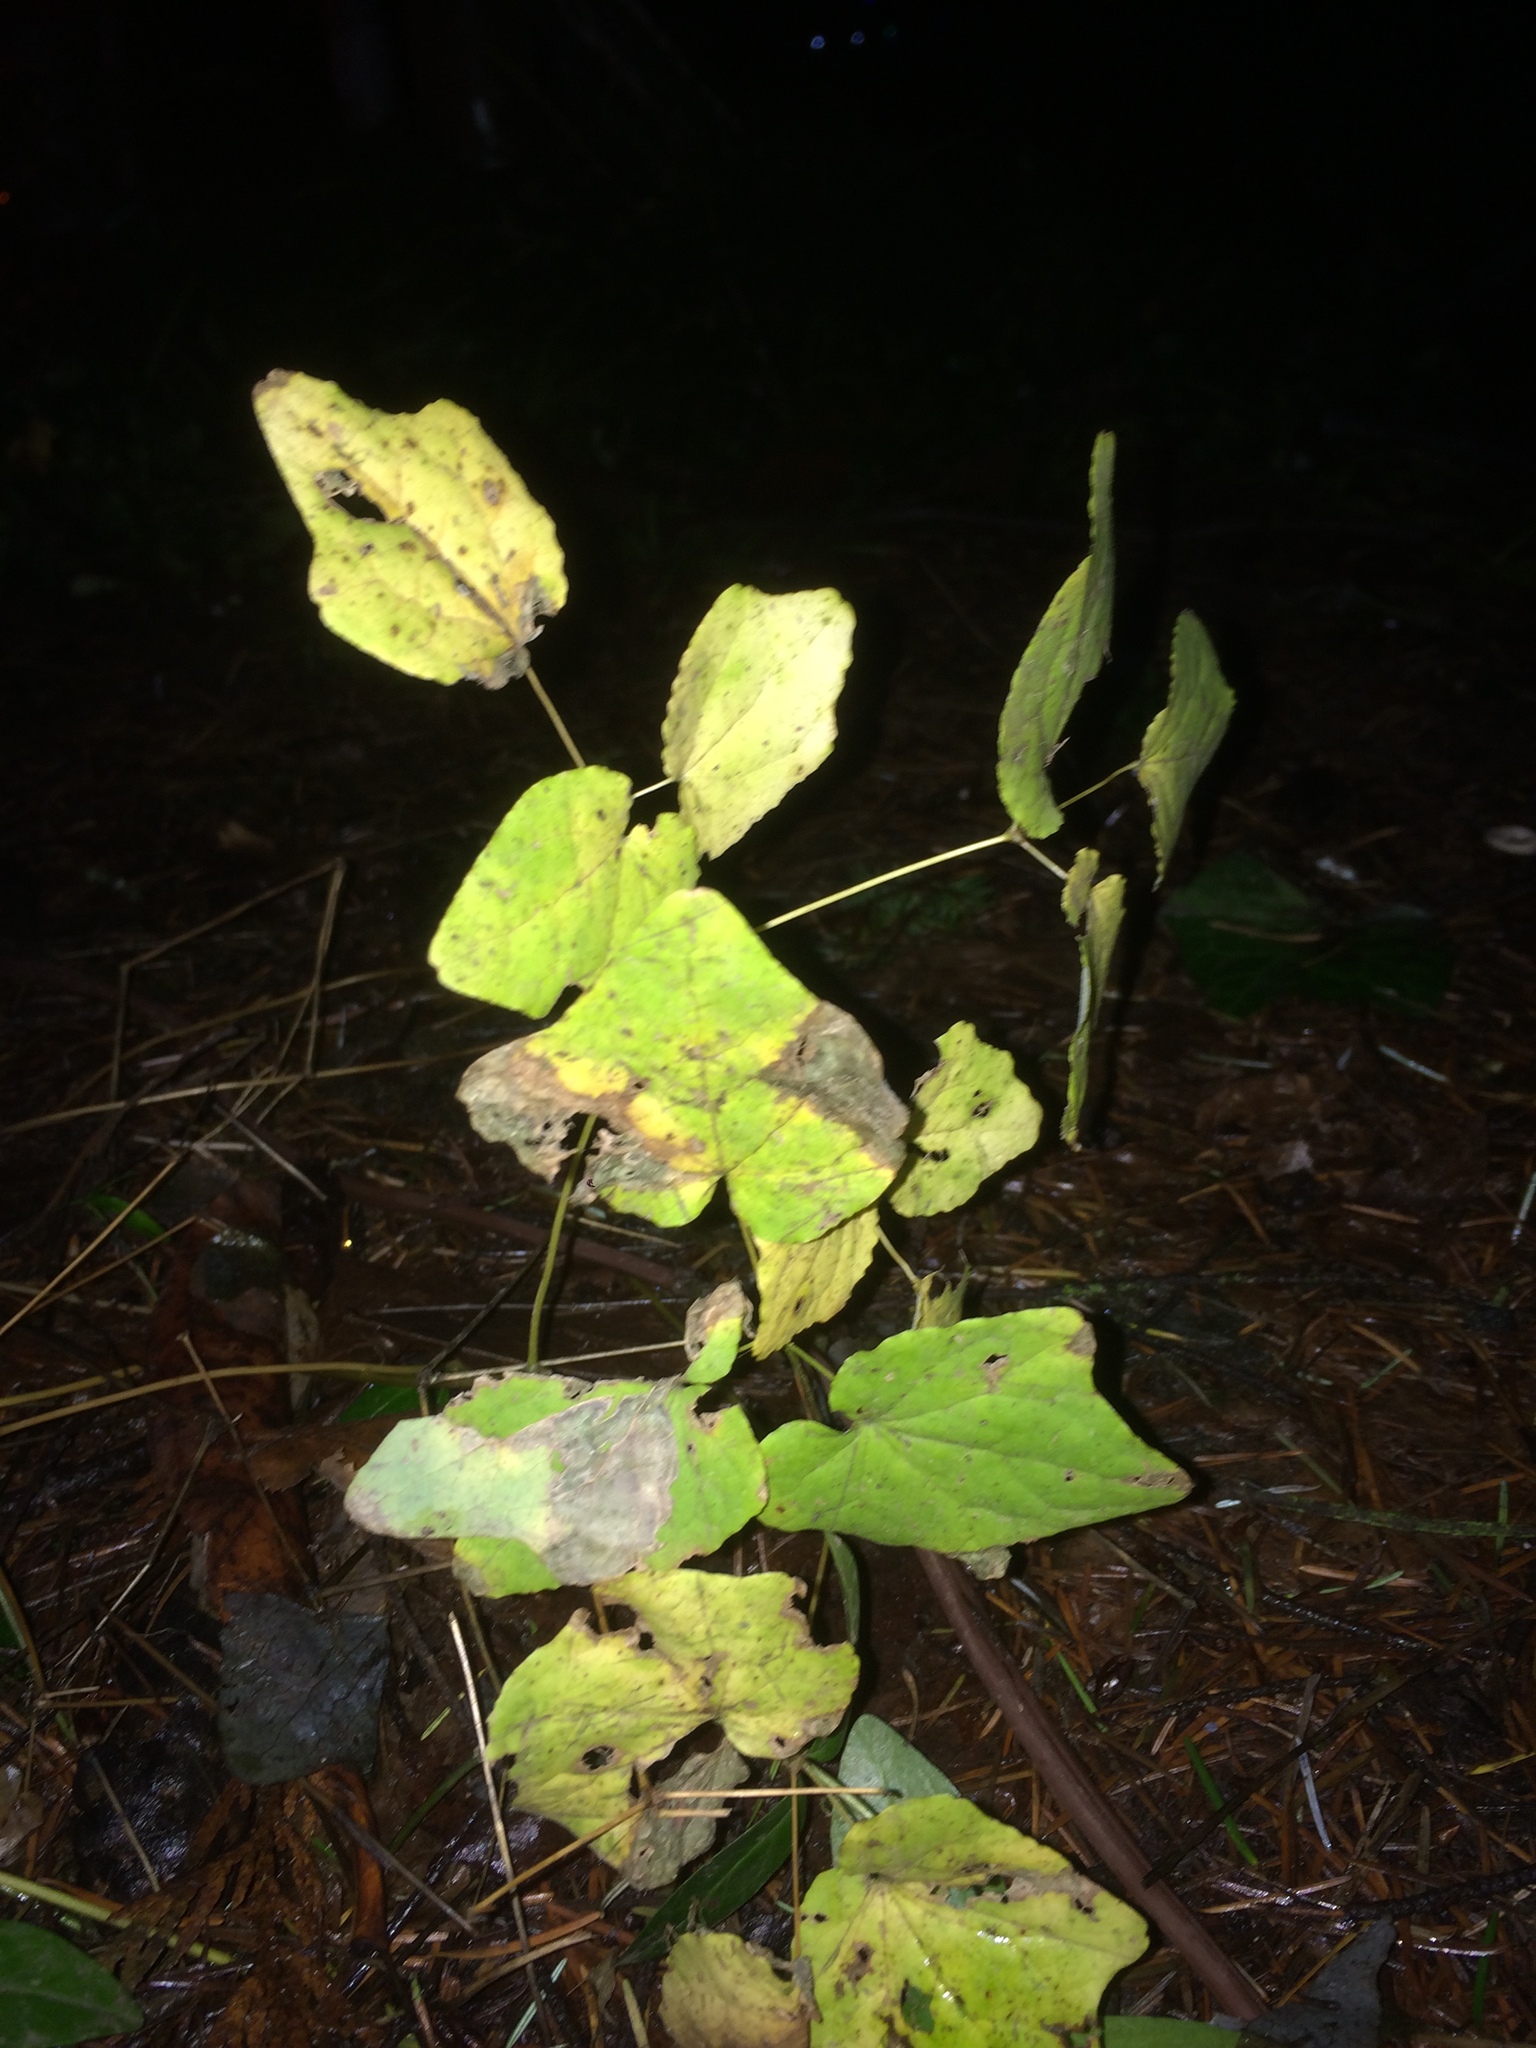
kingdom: Plantae
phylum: Tracheophyta
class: Magnoliopsida
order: Ranunculales
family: Berberidaceae
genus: Vancouveria
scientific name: Vancouveria hexandra
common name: Northern inside-out-flower
